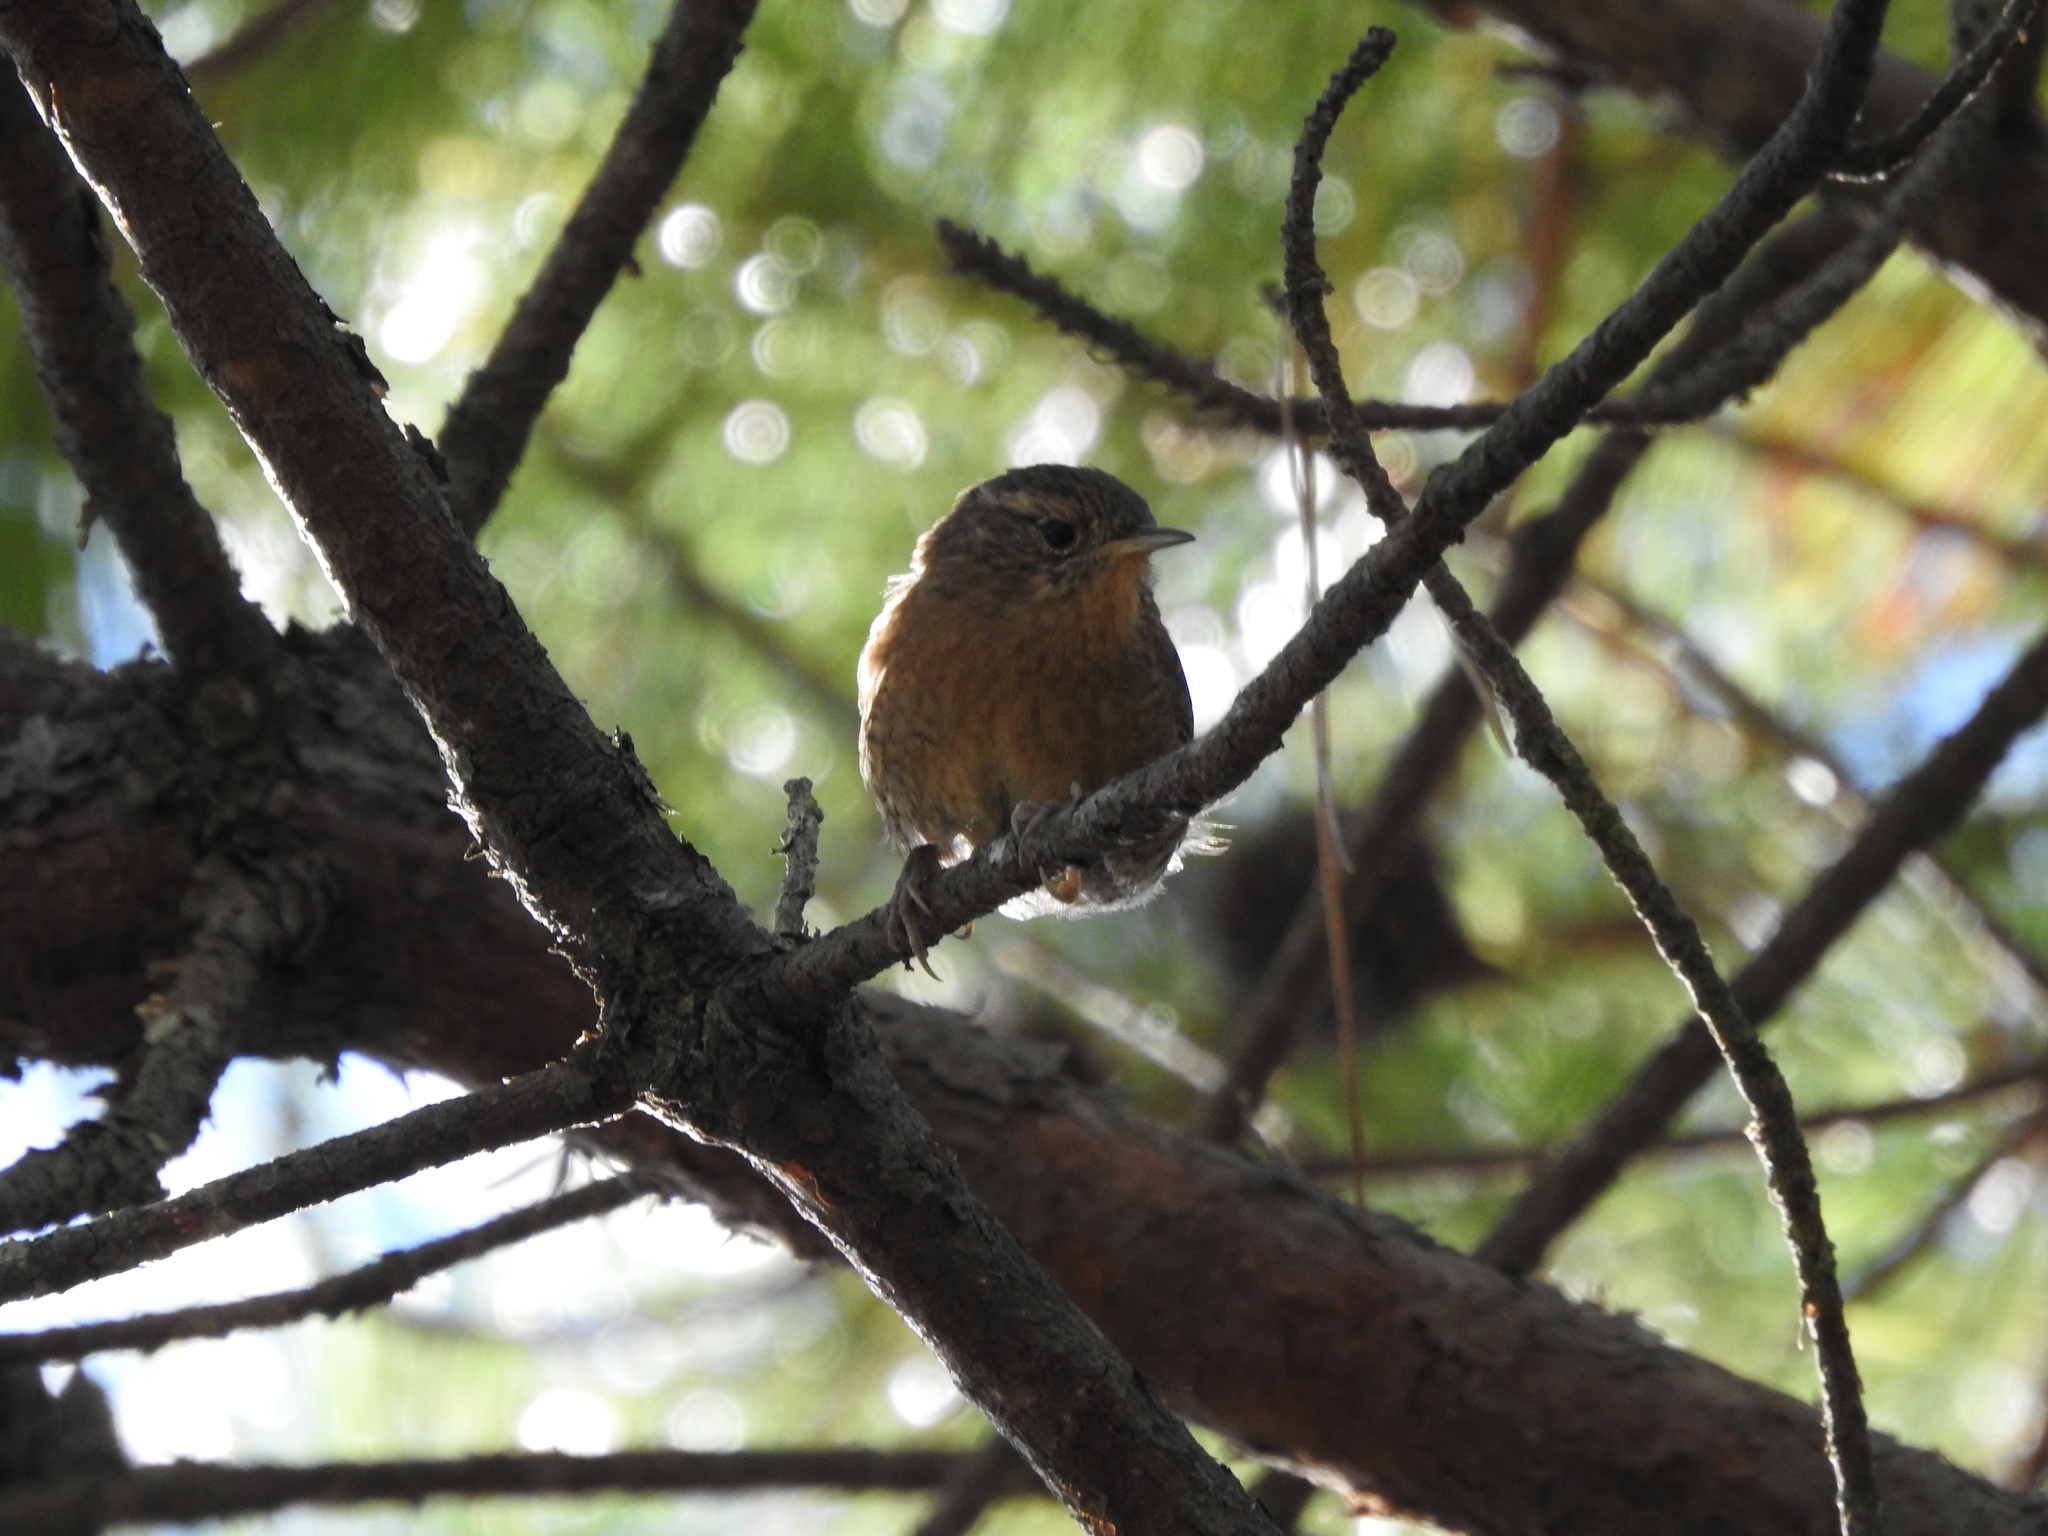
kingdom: Animalia
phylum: Chordata
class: Aves
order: Passeriformes
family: Troglodytidae
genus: Troglodytes
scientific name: Troglodytes aedon
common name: House wren
